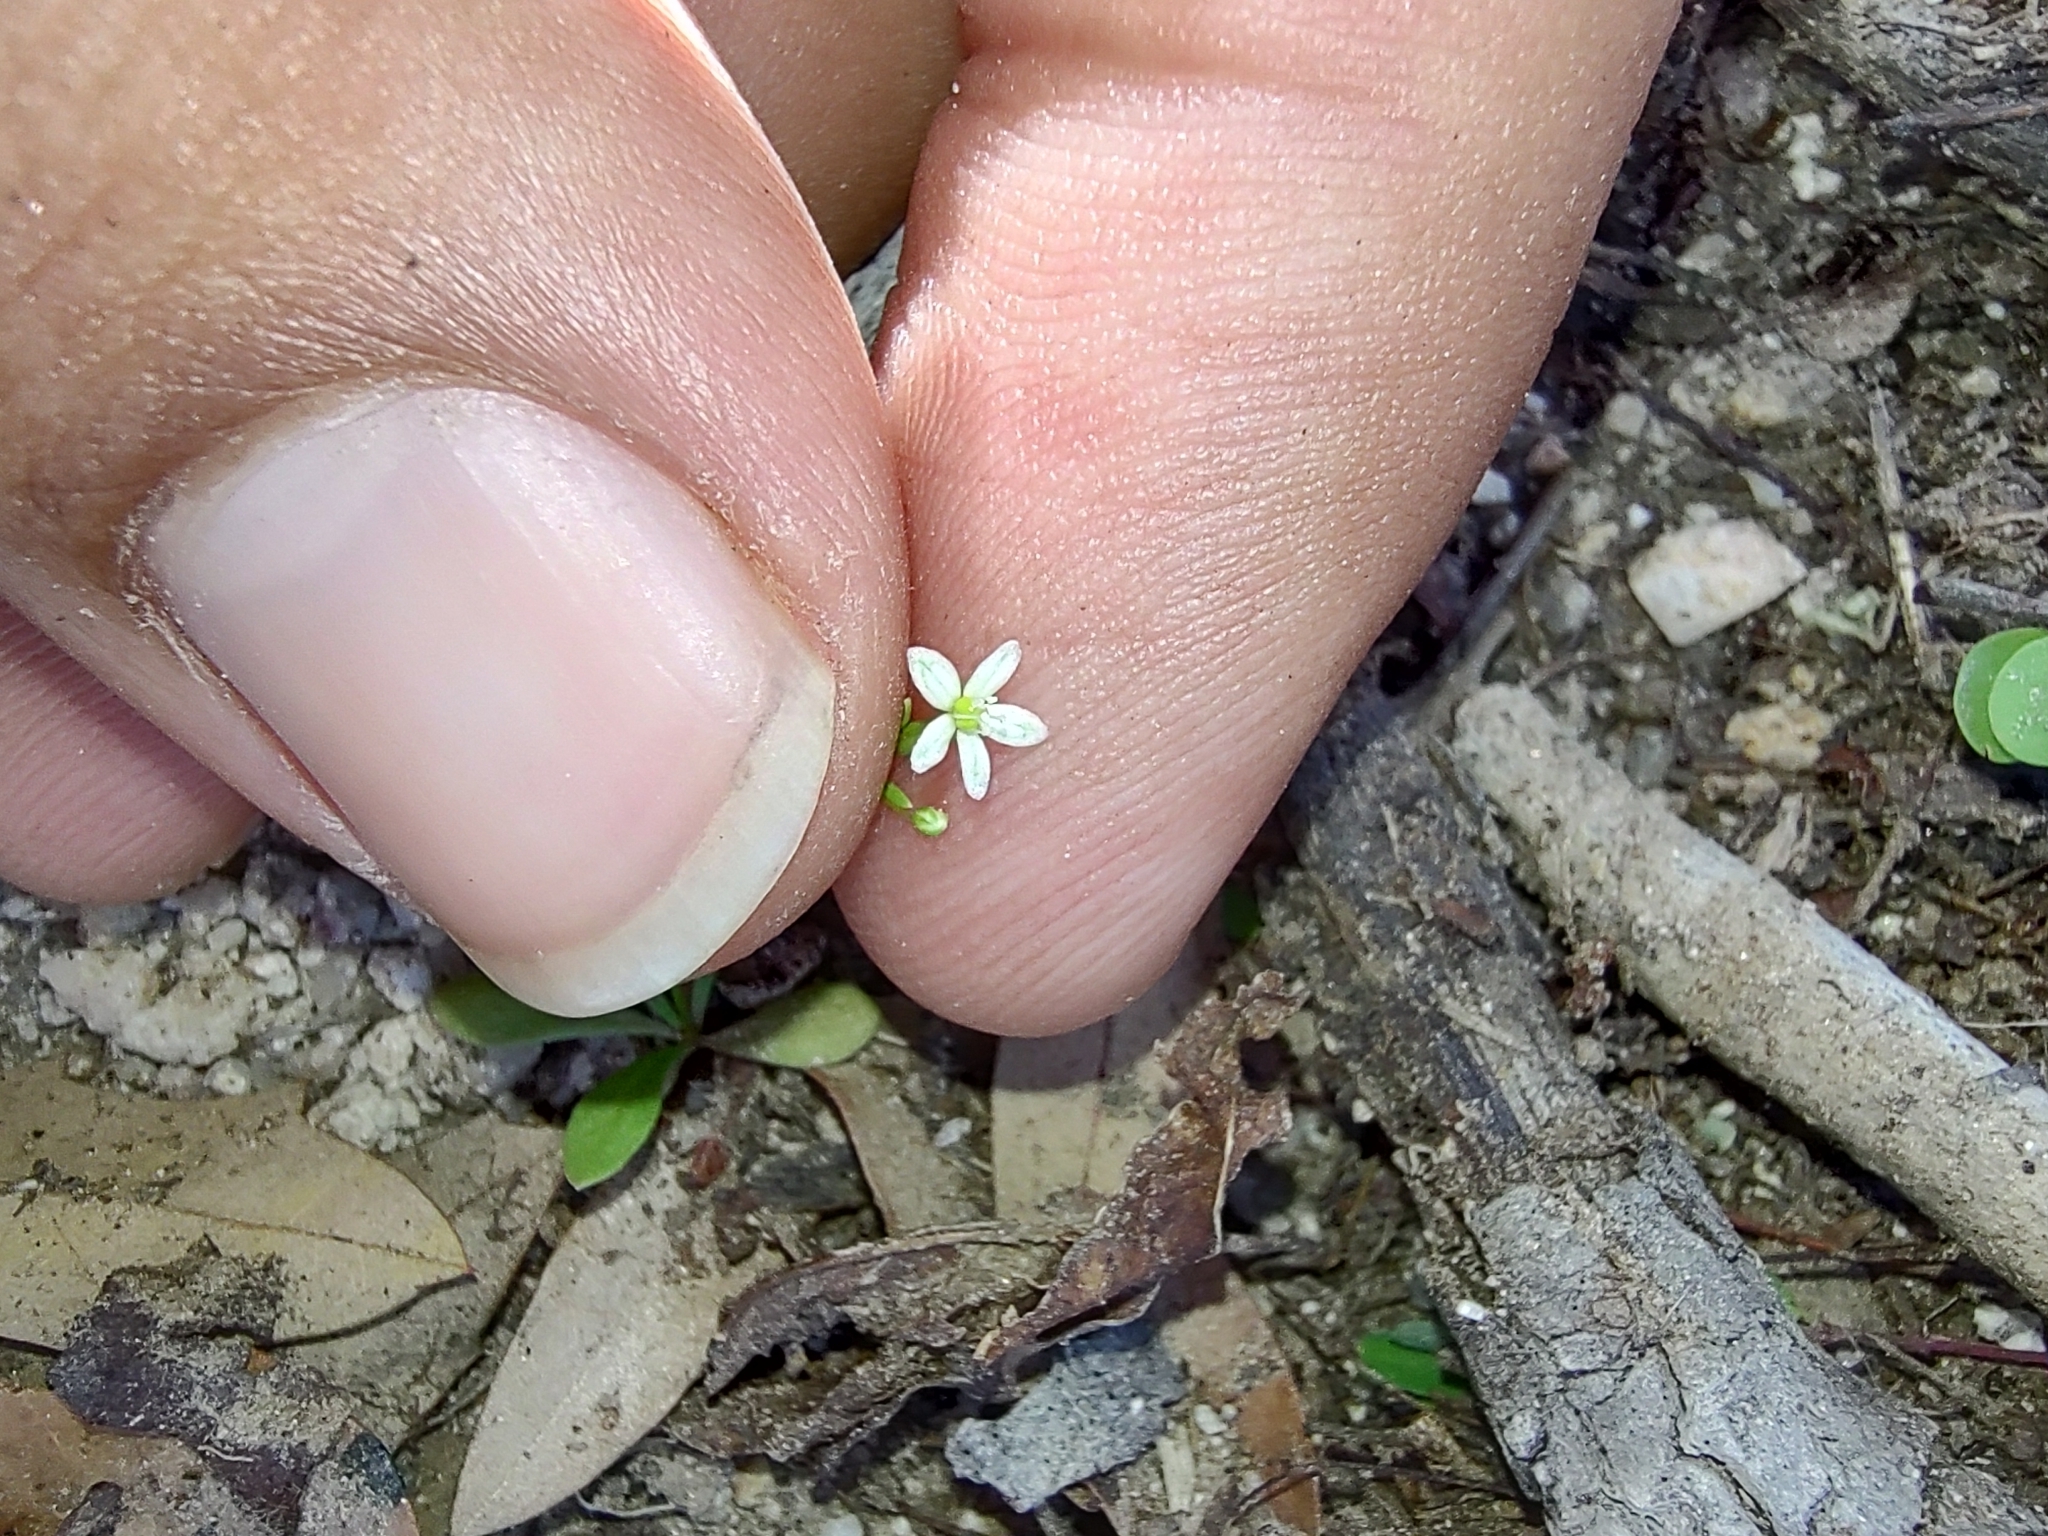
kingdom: Plantae
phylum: Tracheophyta
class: Magnoliopsida
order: Caryophyllales
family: Molluginaceae
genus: Mollugo
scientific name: Mollugo verticillata
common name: Green carpetweed
